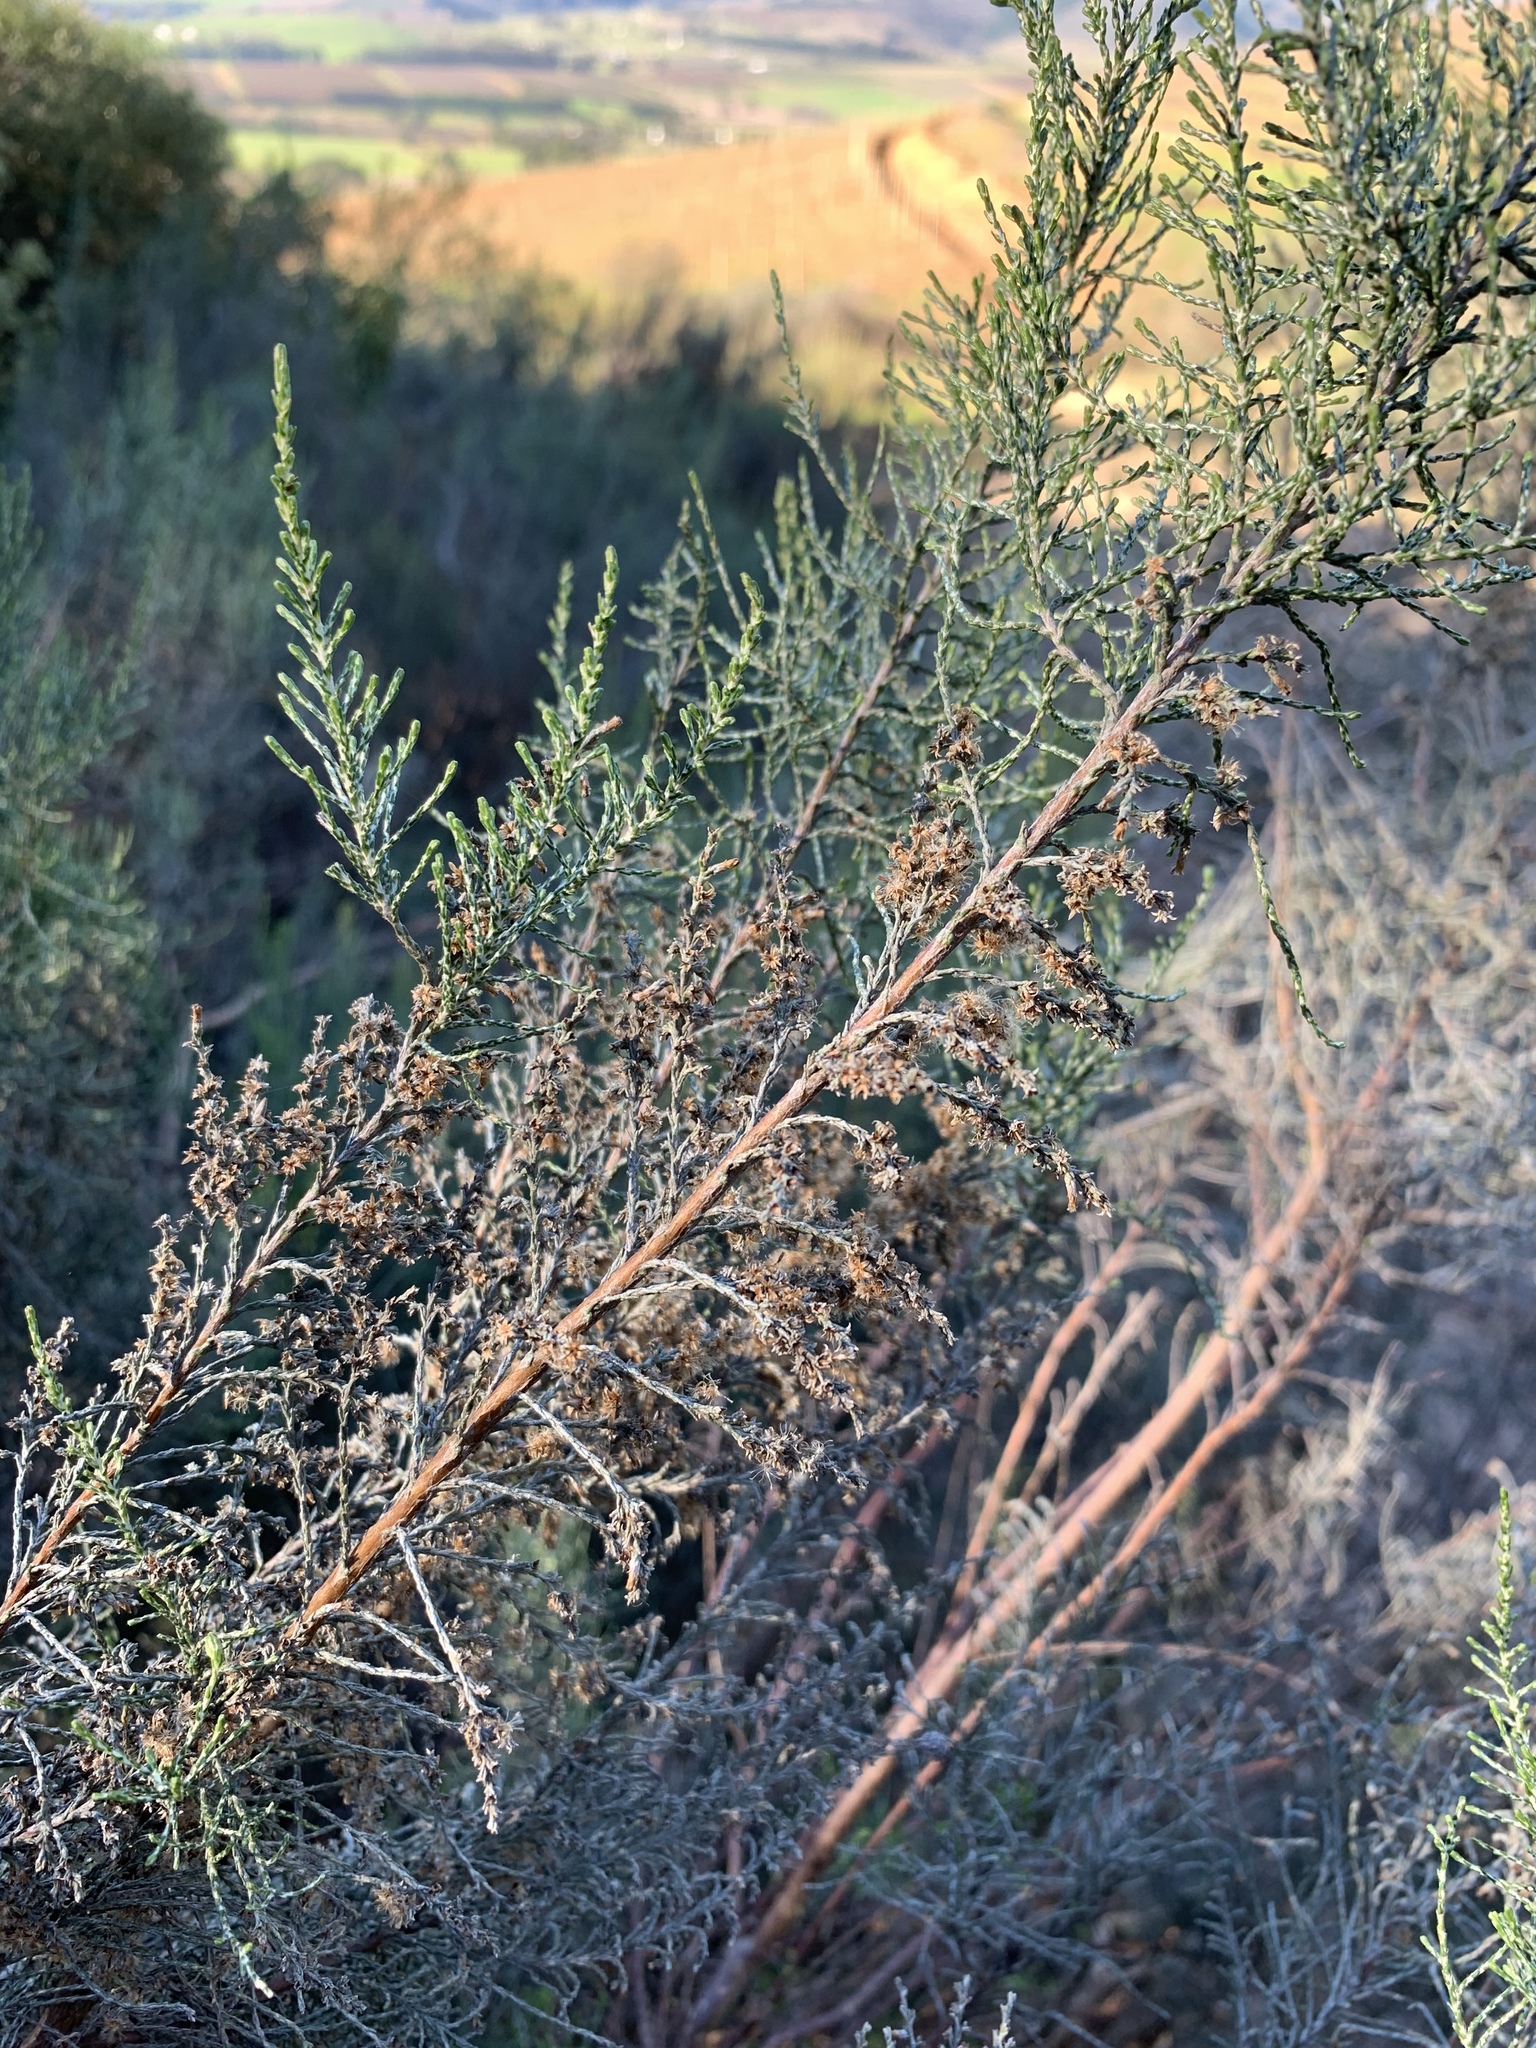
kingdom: Plantae
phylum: Tracheophyta
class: Magnoliopsida
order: Asterales
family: Asteraceae
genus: Dicerothamnus
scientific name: Dicerothamnus rhinocerotis
